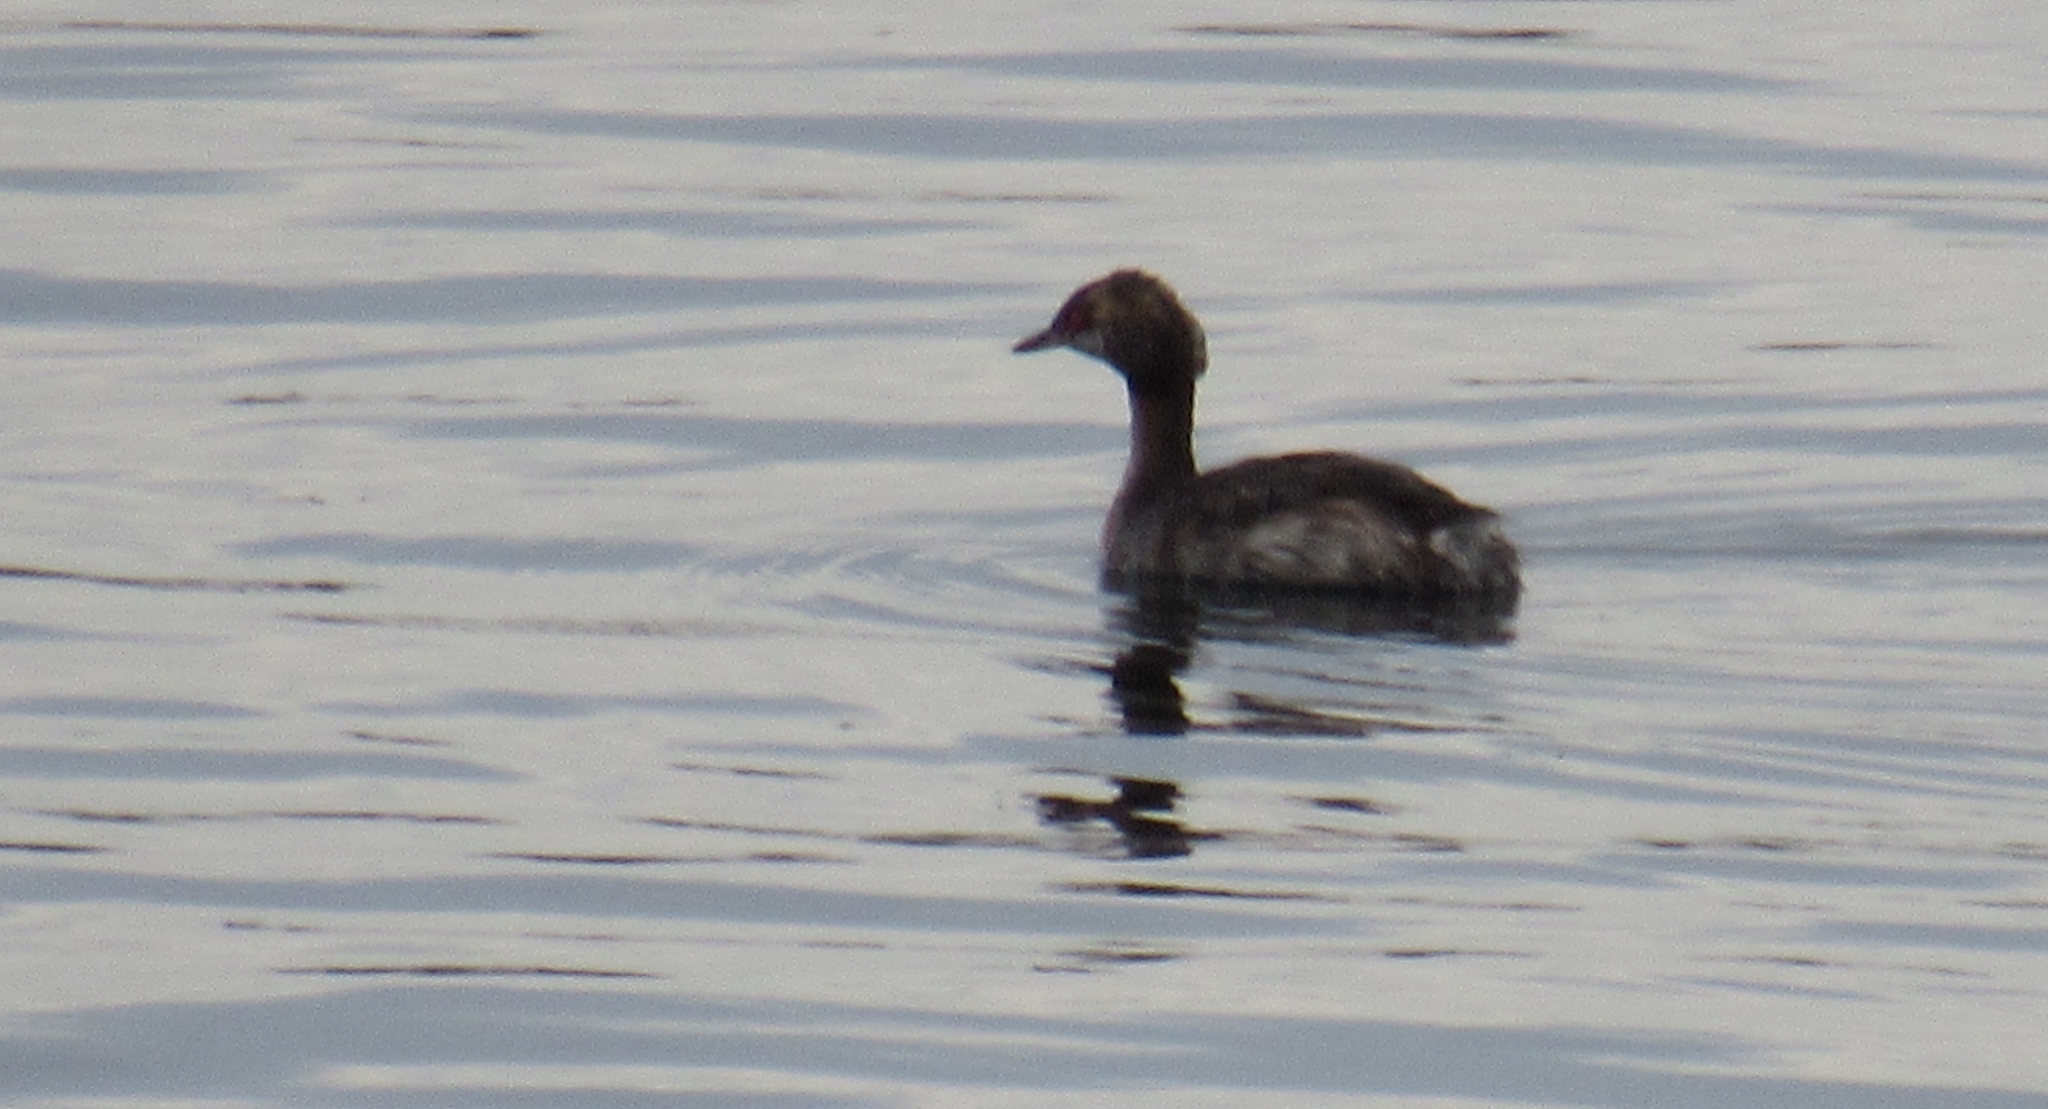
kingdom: Animalia
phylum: Chordata
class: Aves
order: Podicipediformes
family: Podicipedidae
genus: Podiceps
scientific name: Podiceps auritus
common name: Horned grebe
